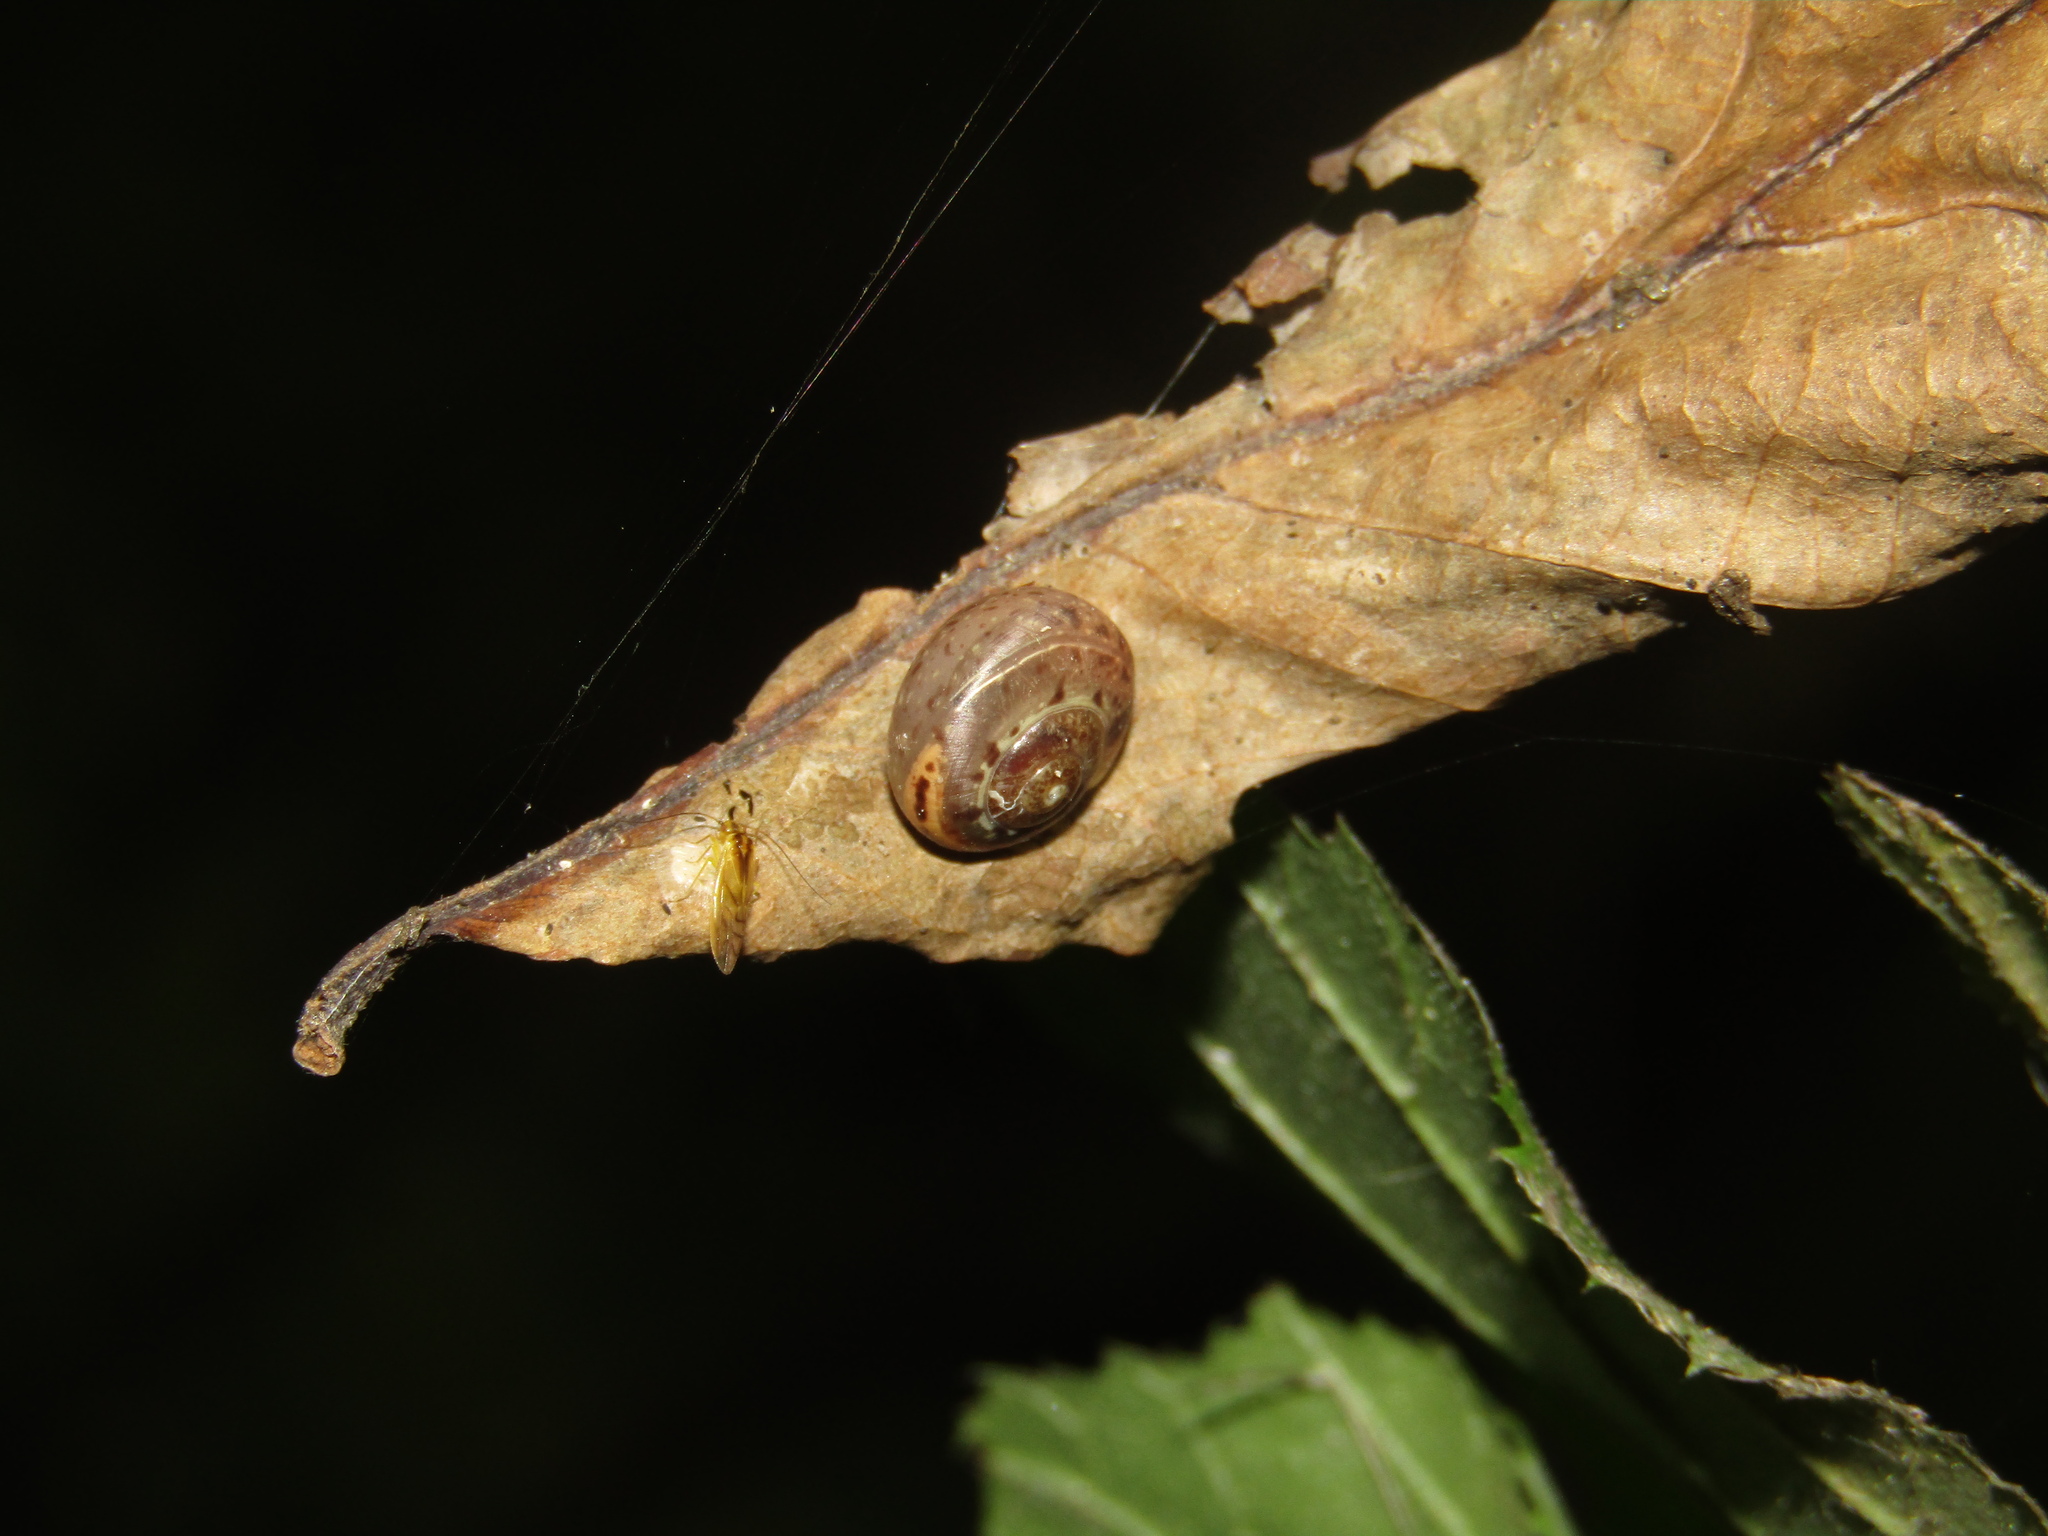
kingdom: Animalia
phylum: Mollusca
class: Gastropoda
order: Stylommatophora
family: Camaenidae
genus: Fruticicola
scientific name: Fruticicola fruticum
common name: Bush snail
